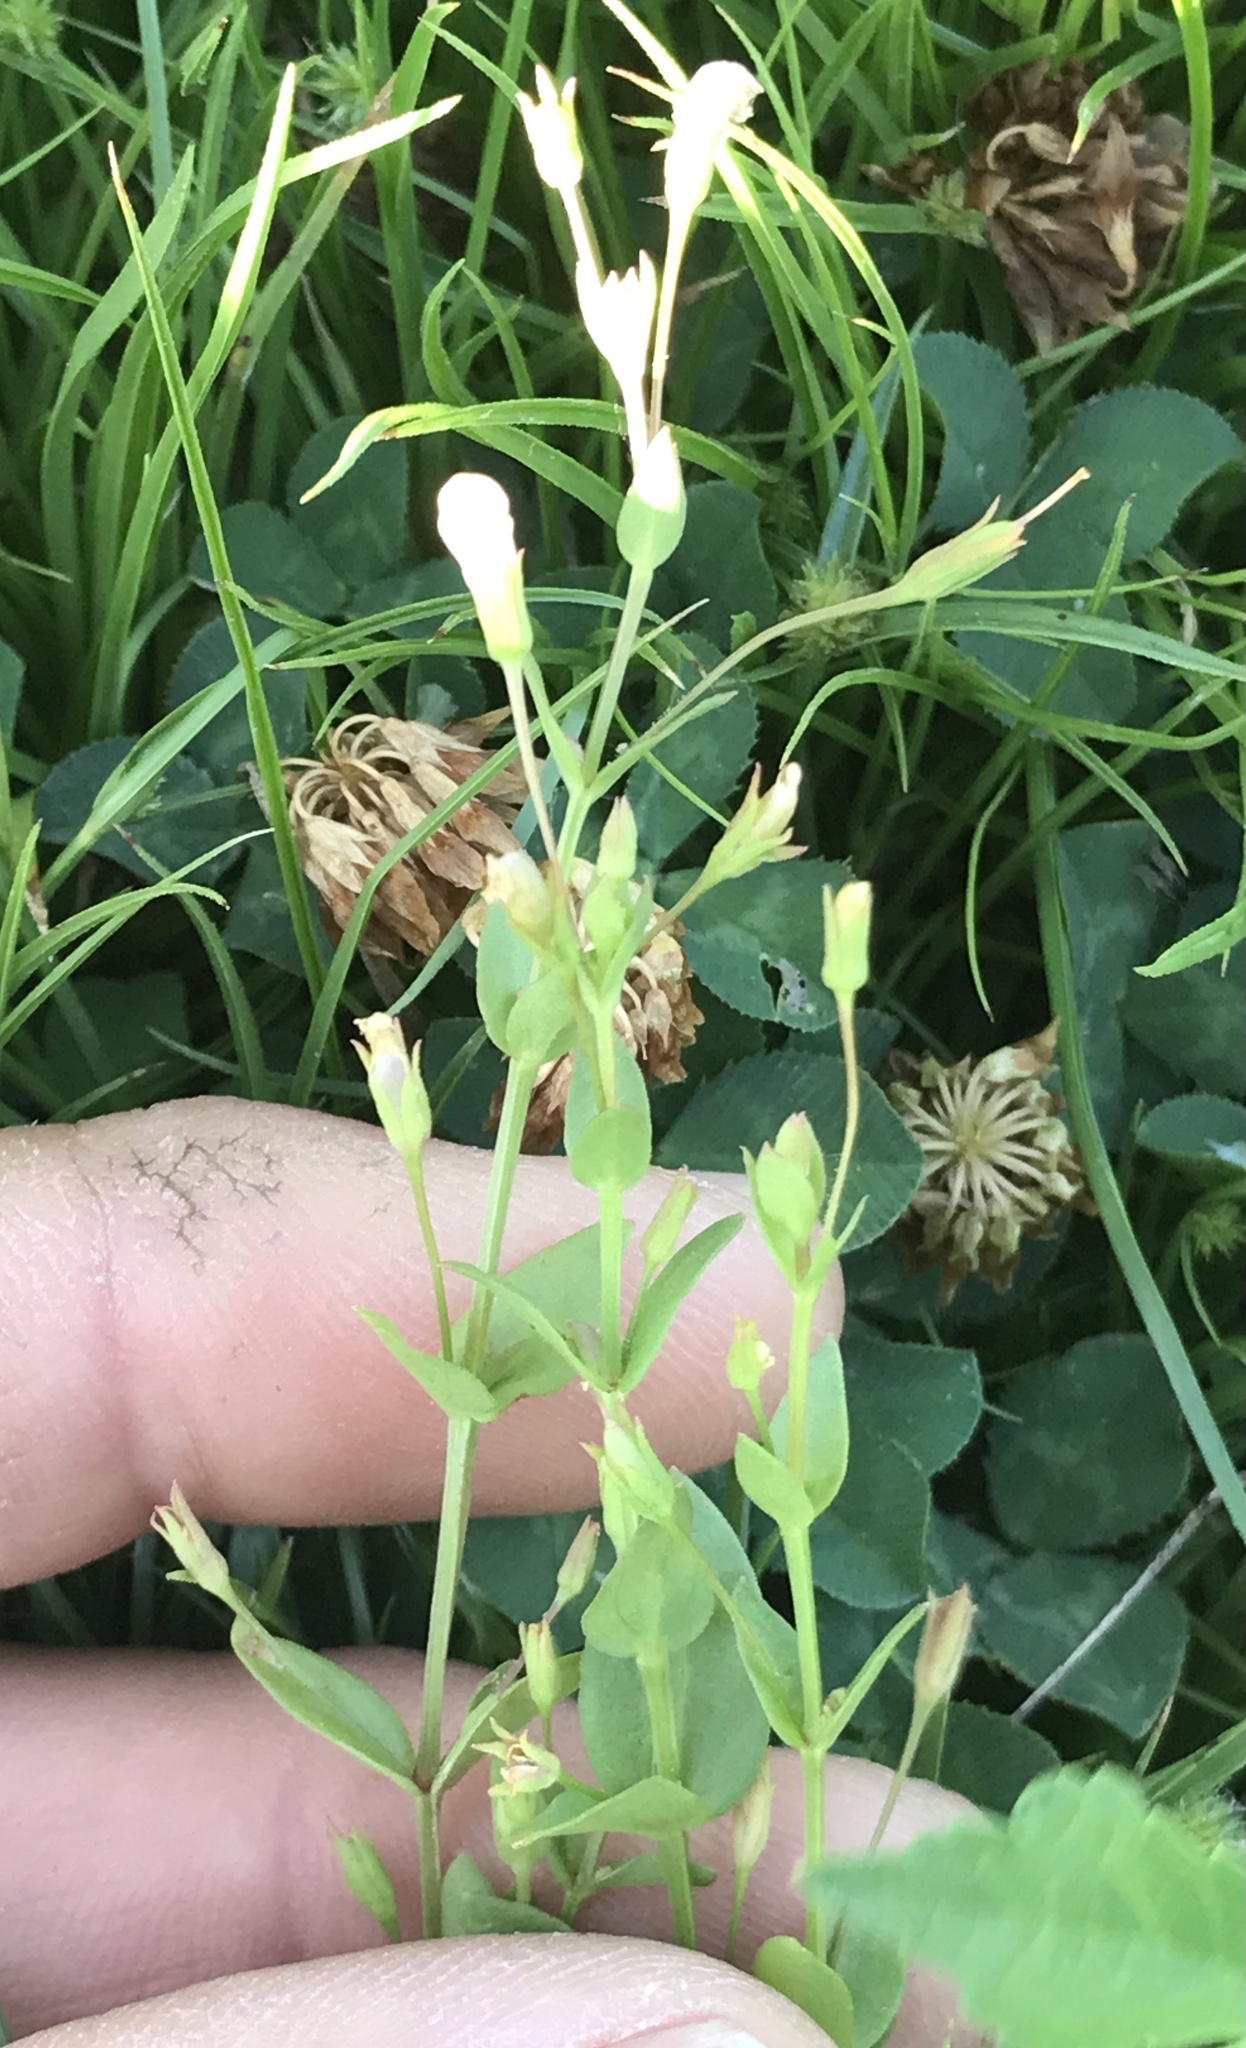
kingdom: Plantae
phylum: Tracheophyta
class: Magnoliopsida
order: Lamiales
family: Linderniaceae
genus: Lindernia
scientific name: Lindernia dubia
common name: Annual false pimpernel
